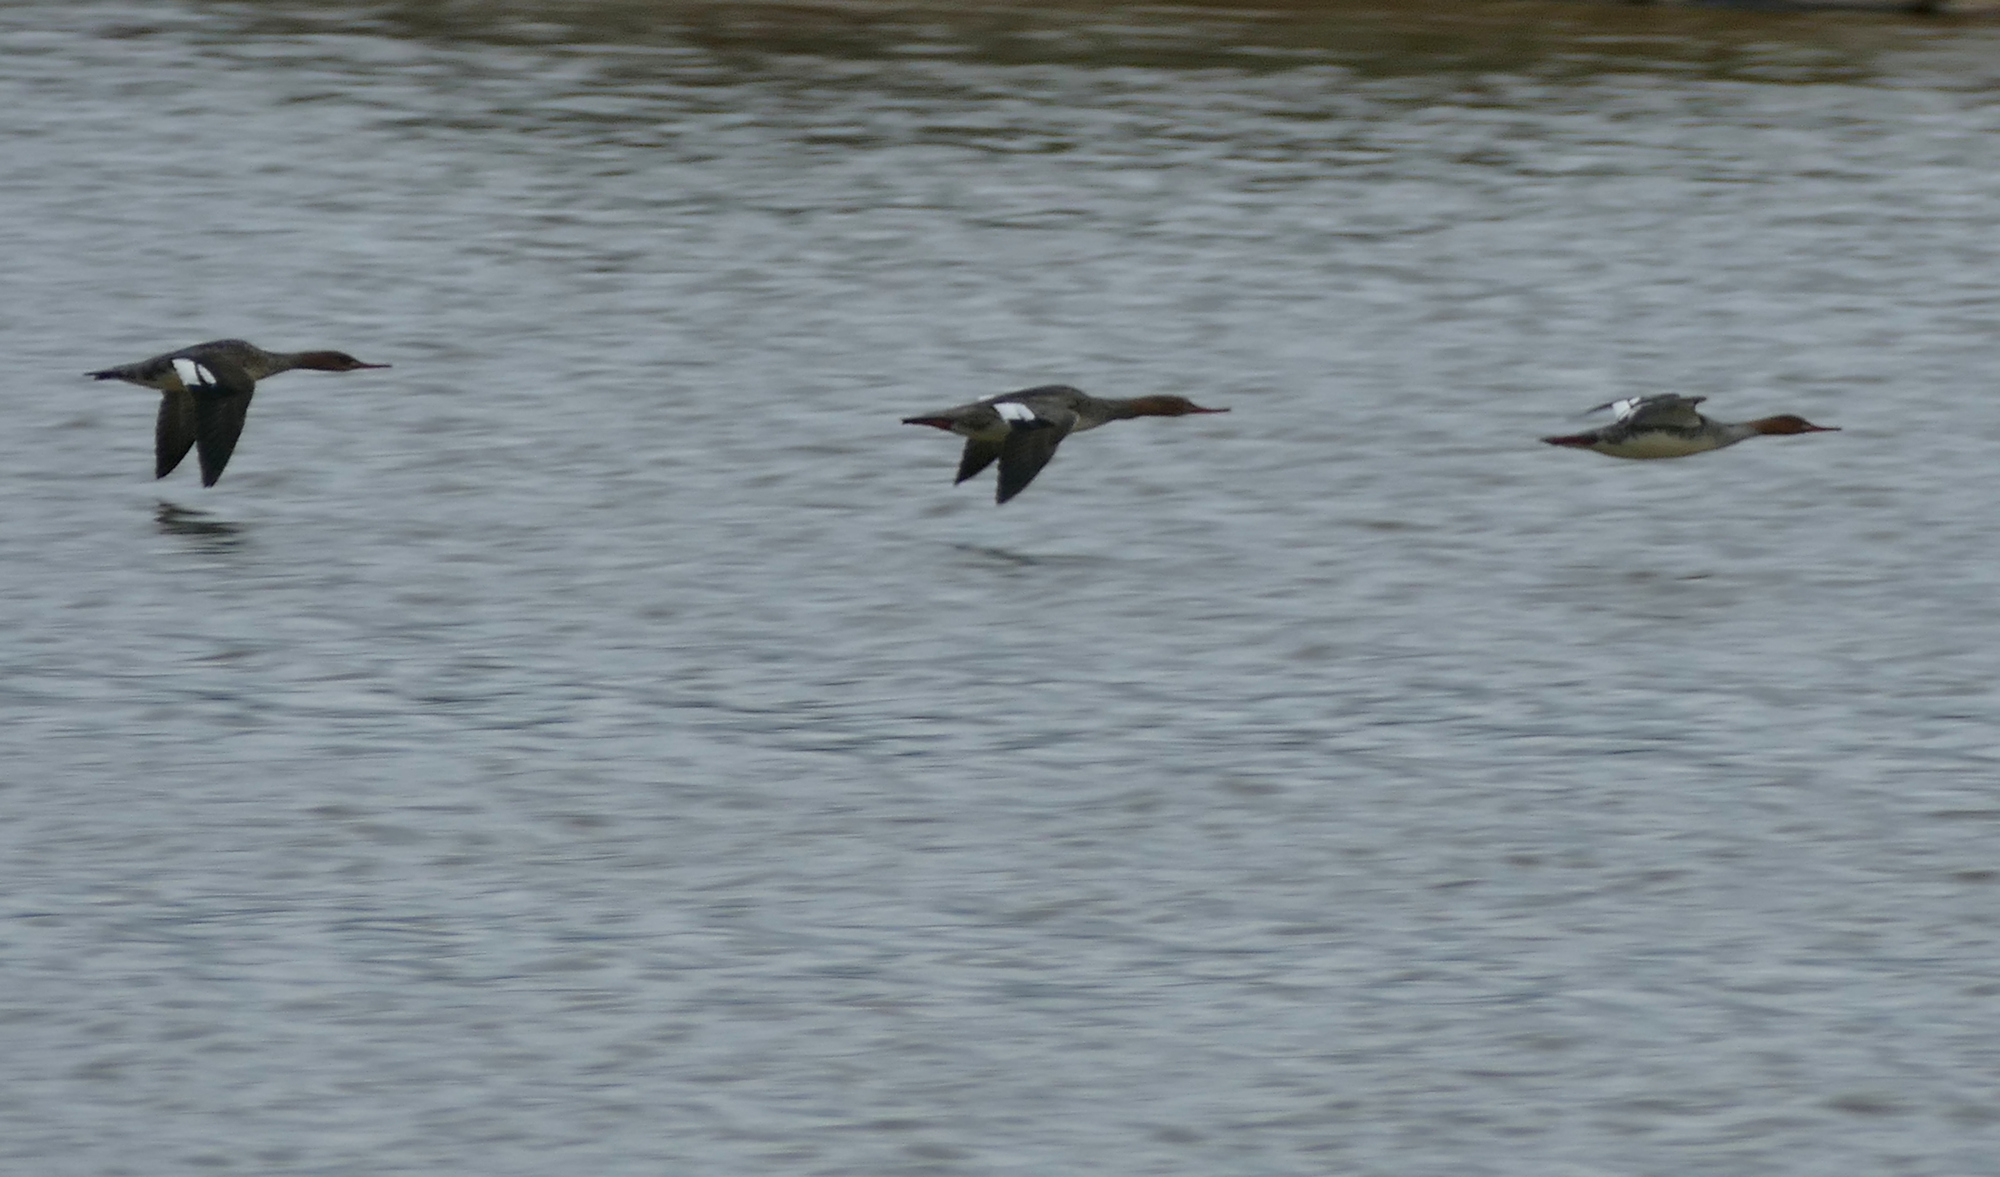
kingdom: Animalia
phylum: Chordata
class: Aves
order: Anseriformes
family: Anatidae
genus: Mergus
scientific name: Mergus serrator
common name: Red-breasted merganser
